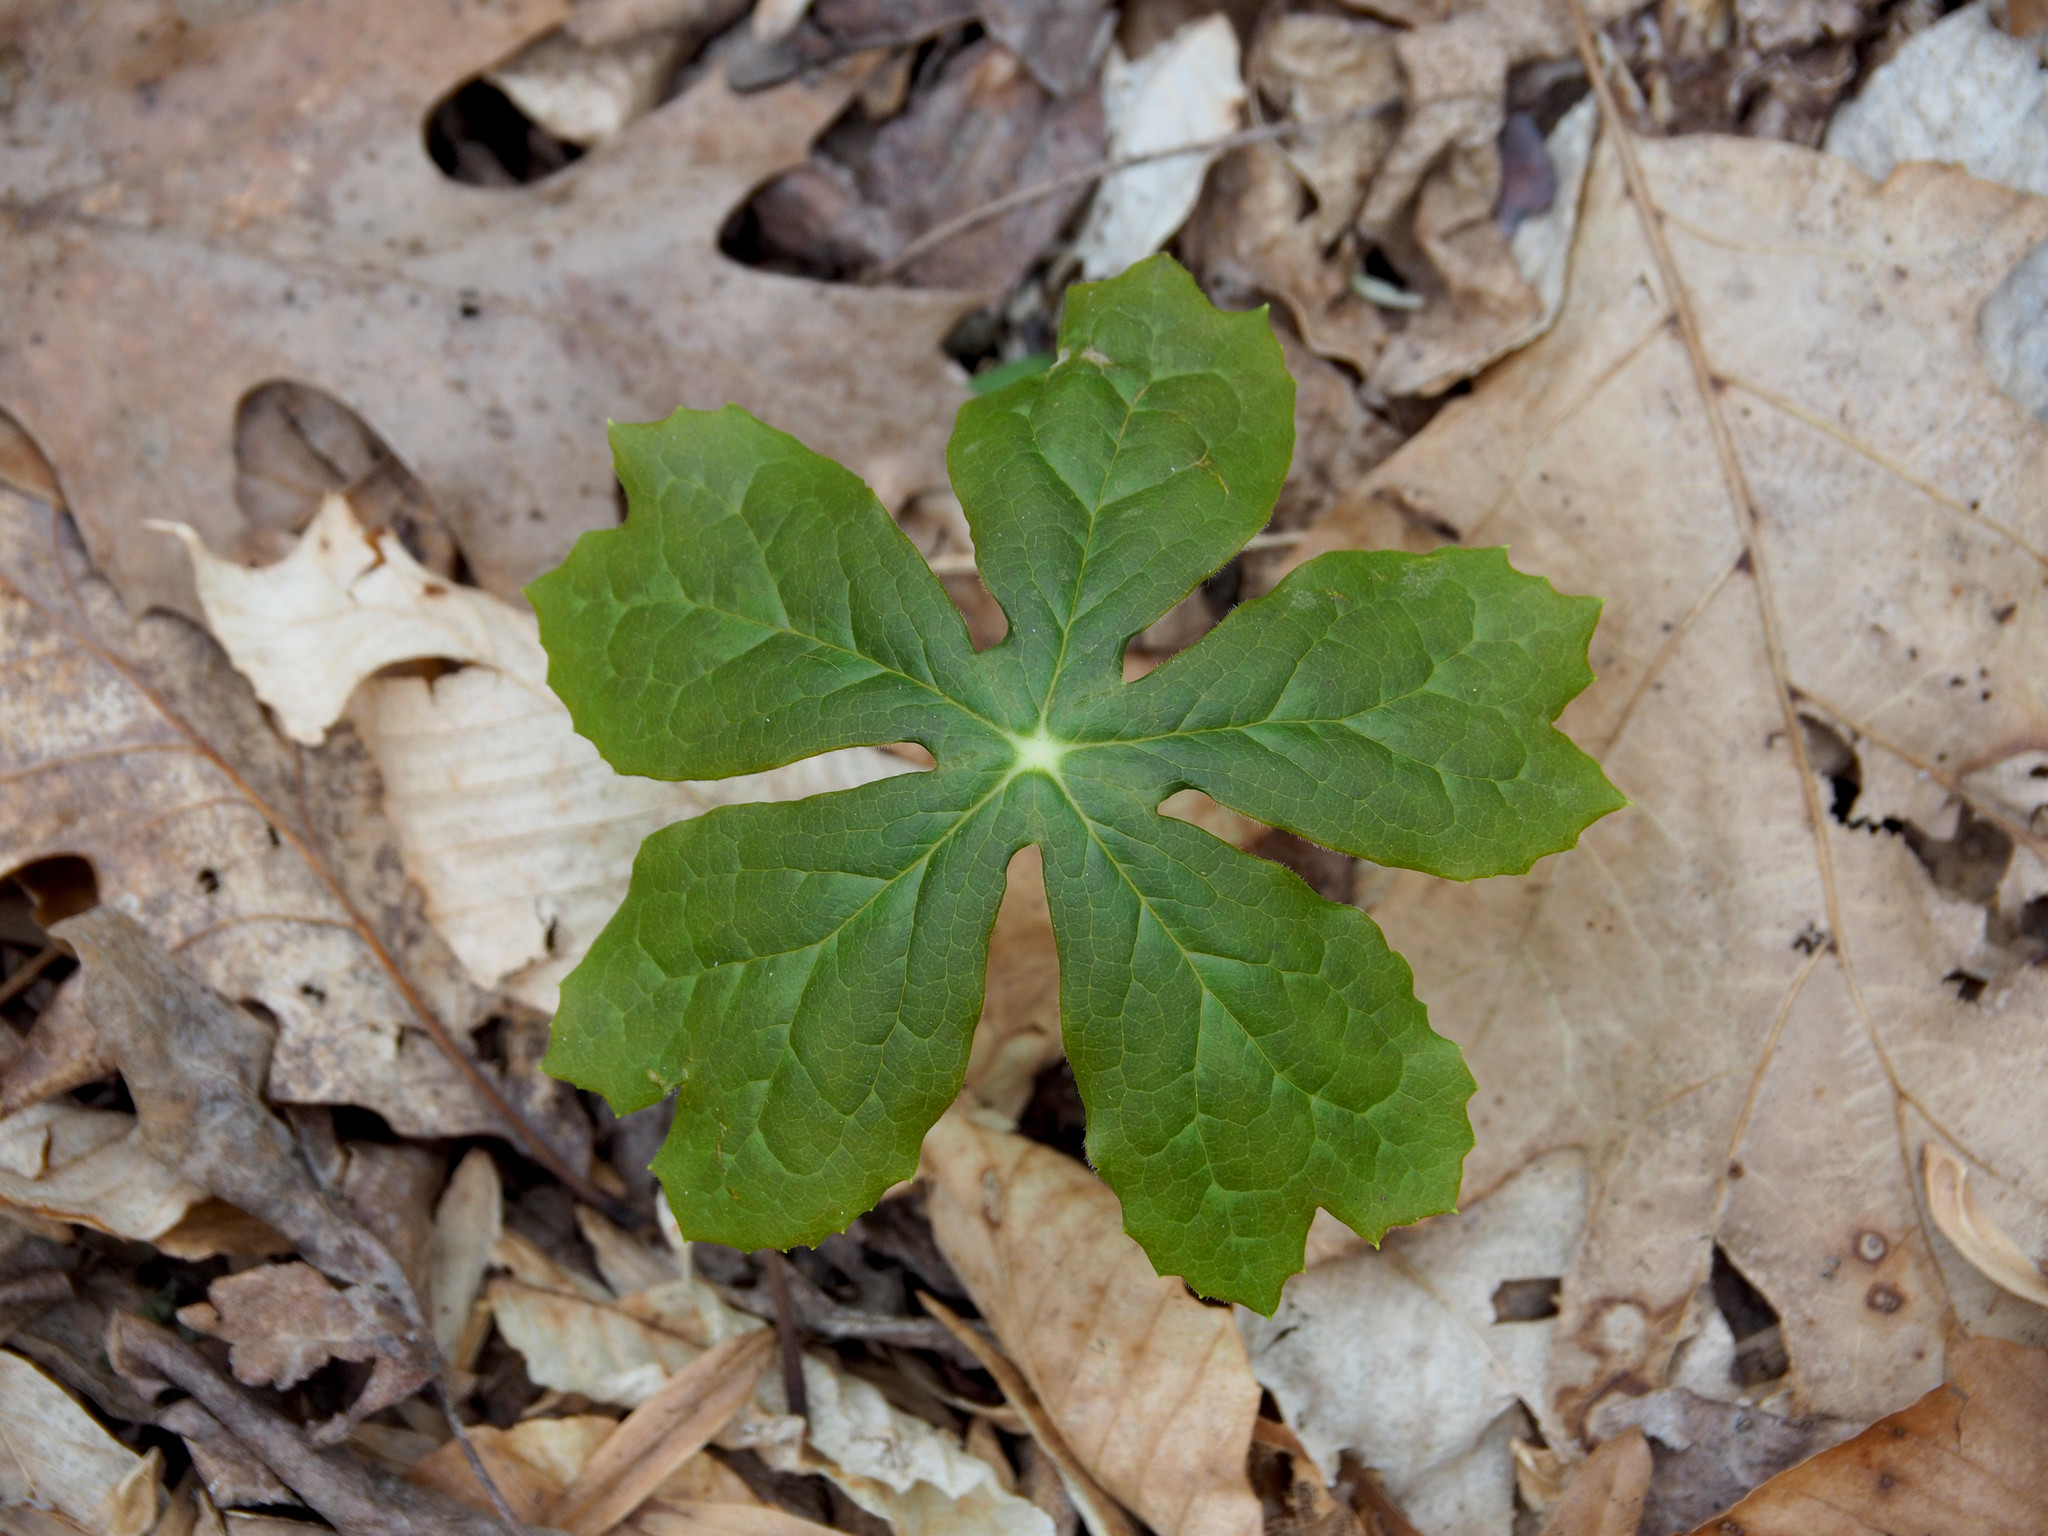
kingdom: Plantae
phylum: Tracheophyta
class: Magnoliopsida
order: Ranunculales
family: Berberidaceae
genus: Podophyllum
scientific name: Podophyllum peltatum
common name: Wild mandrake
